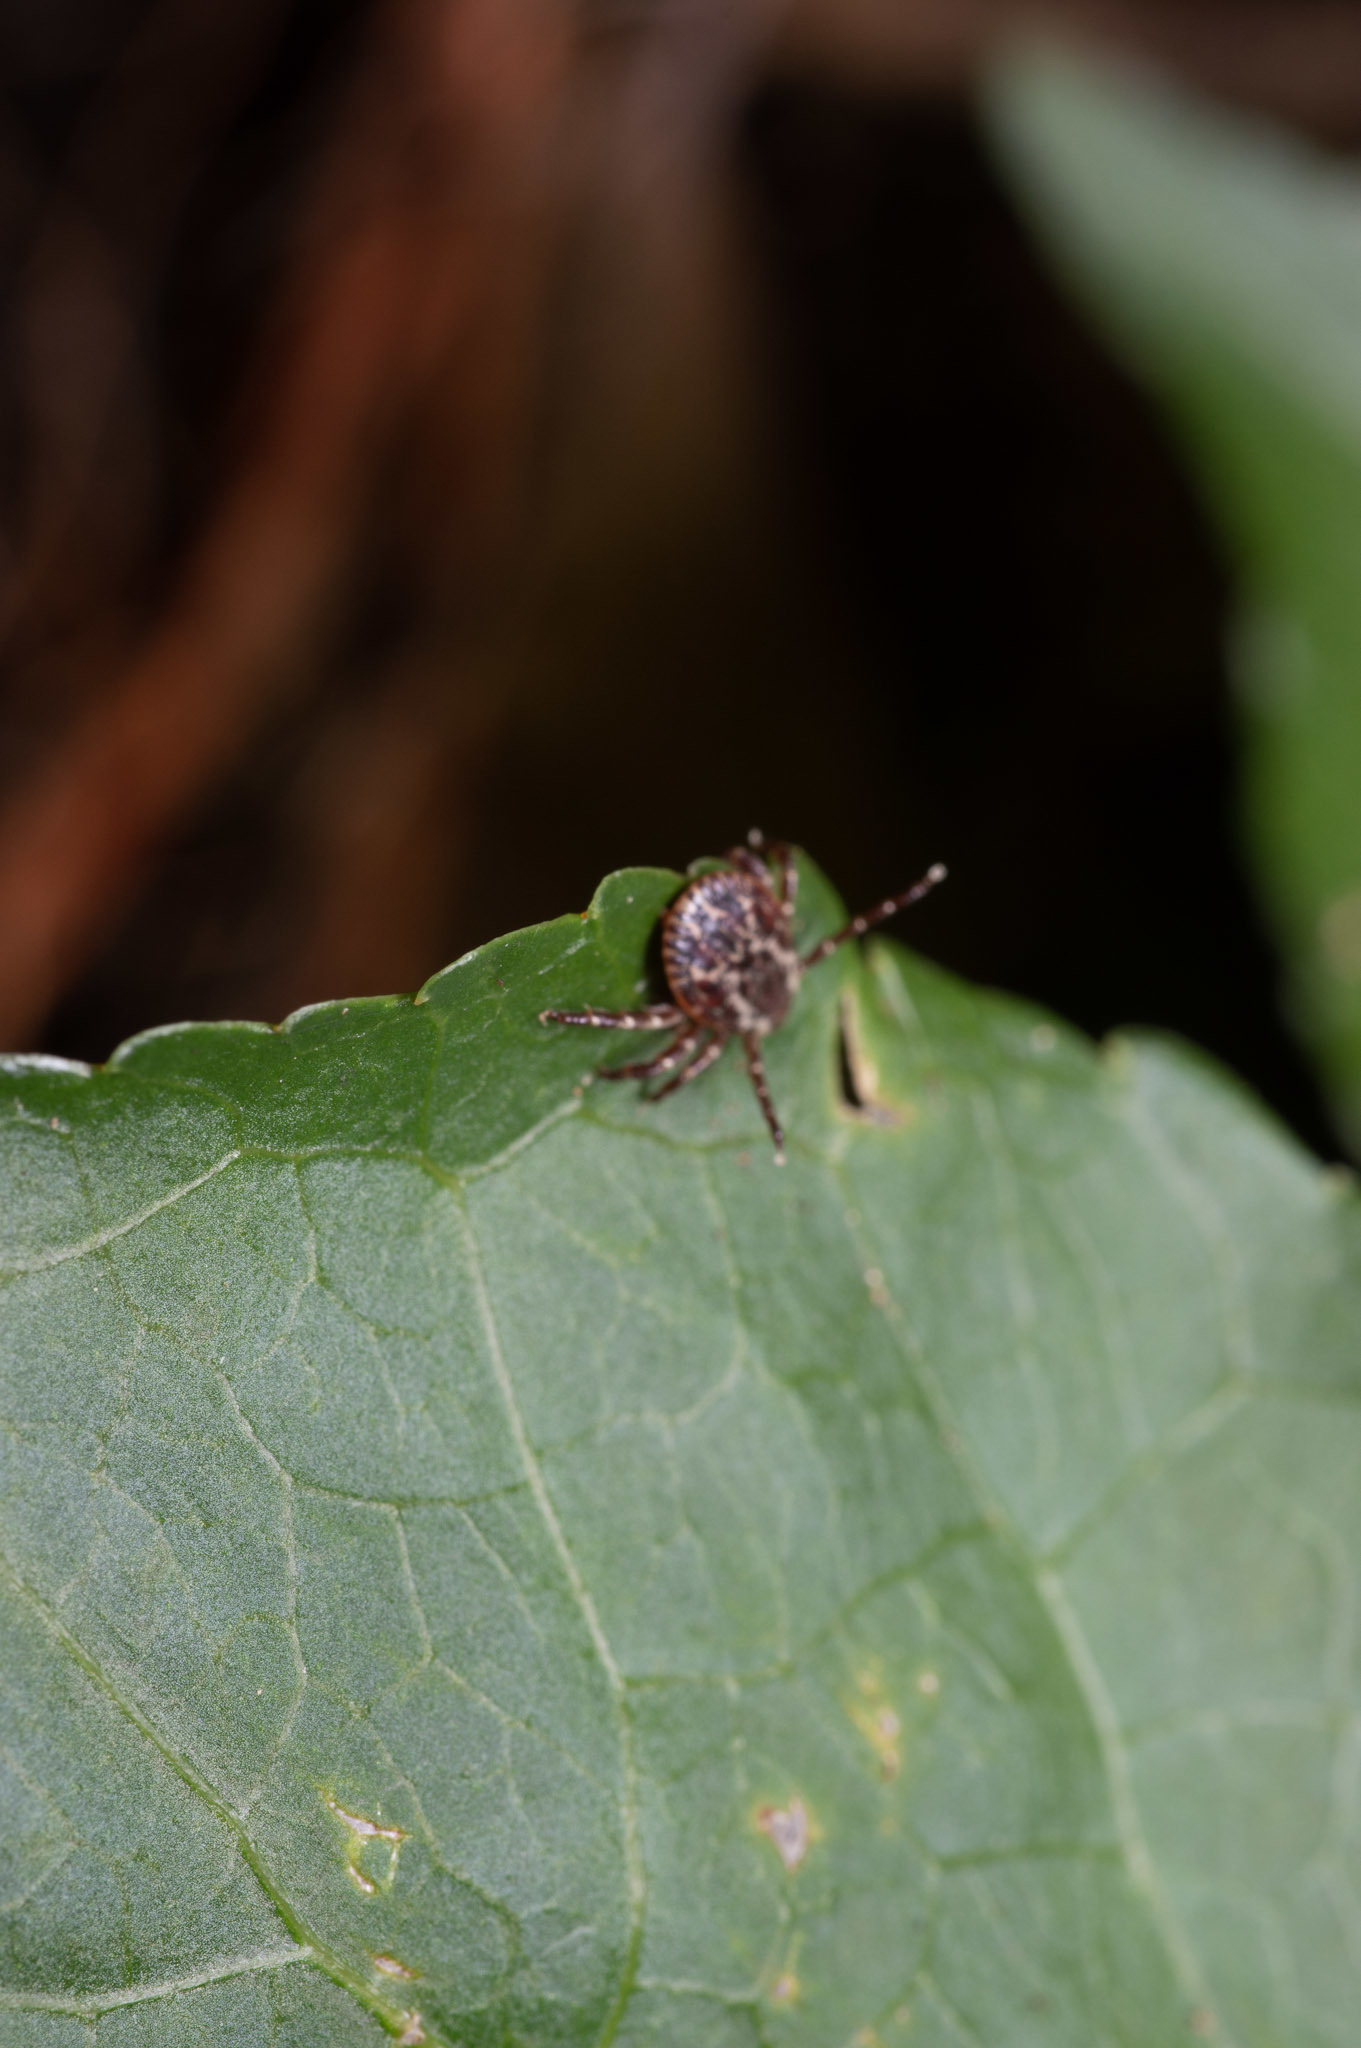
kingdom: Animalia
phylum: Arthropoda
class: Arachnida
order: Ixodida
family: Ixodidae
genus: Dermacentor
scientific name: Dermacentor variabilis
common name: American dog tick
